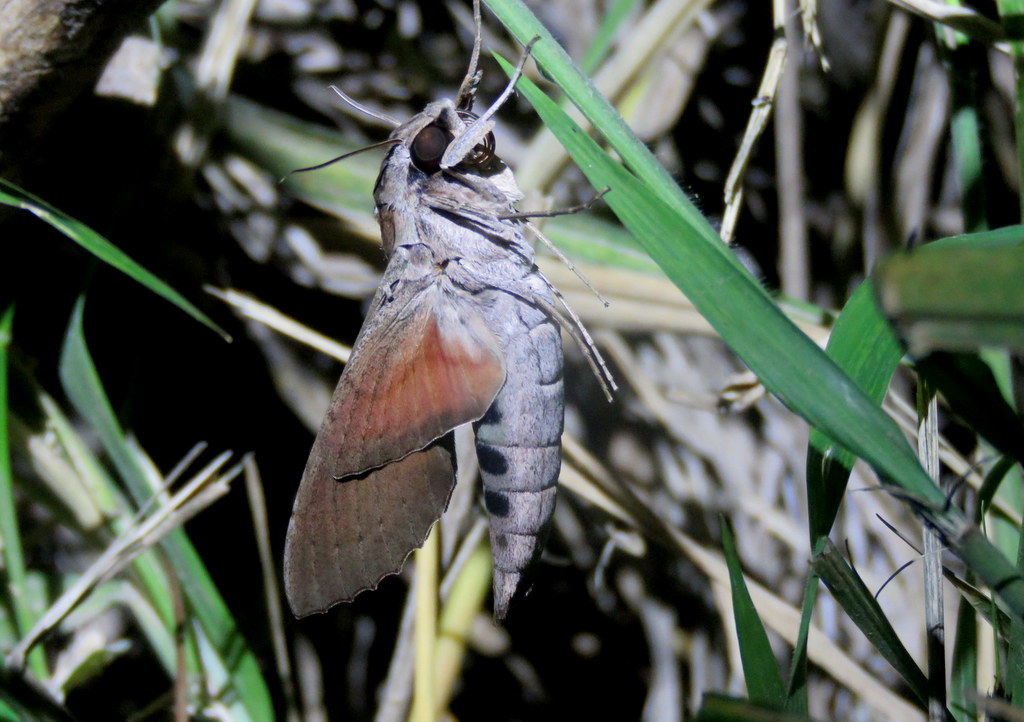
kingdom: Animalia
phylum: Arthropoda
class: Insecta
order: Lepidoptera
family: Sphingidae
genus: Phryxus
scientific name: Phryxus caicus
